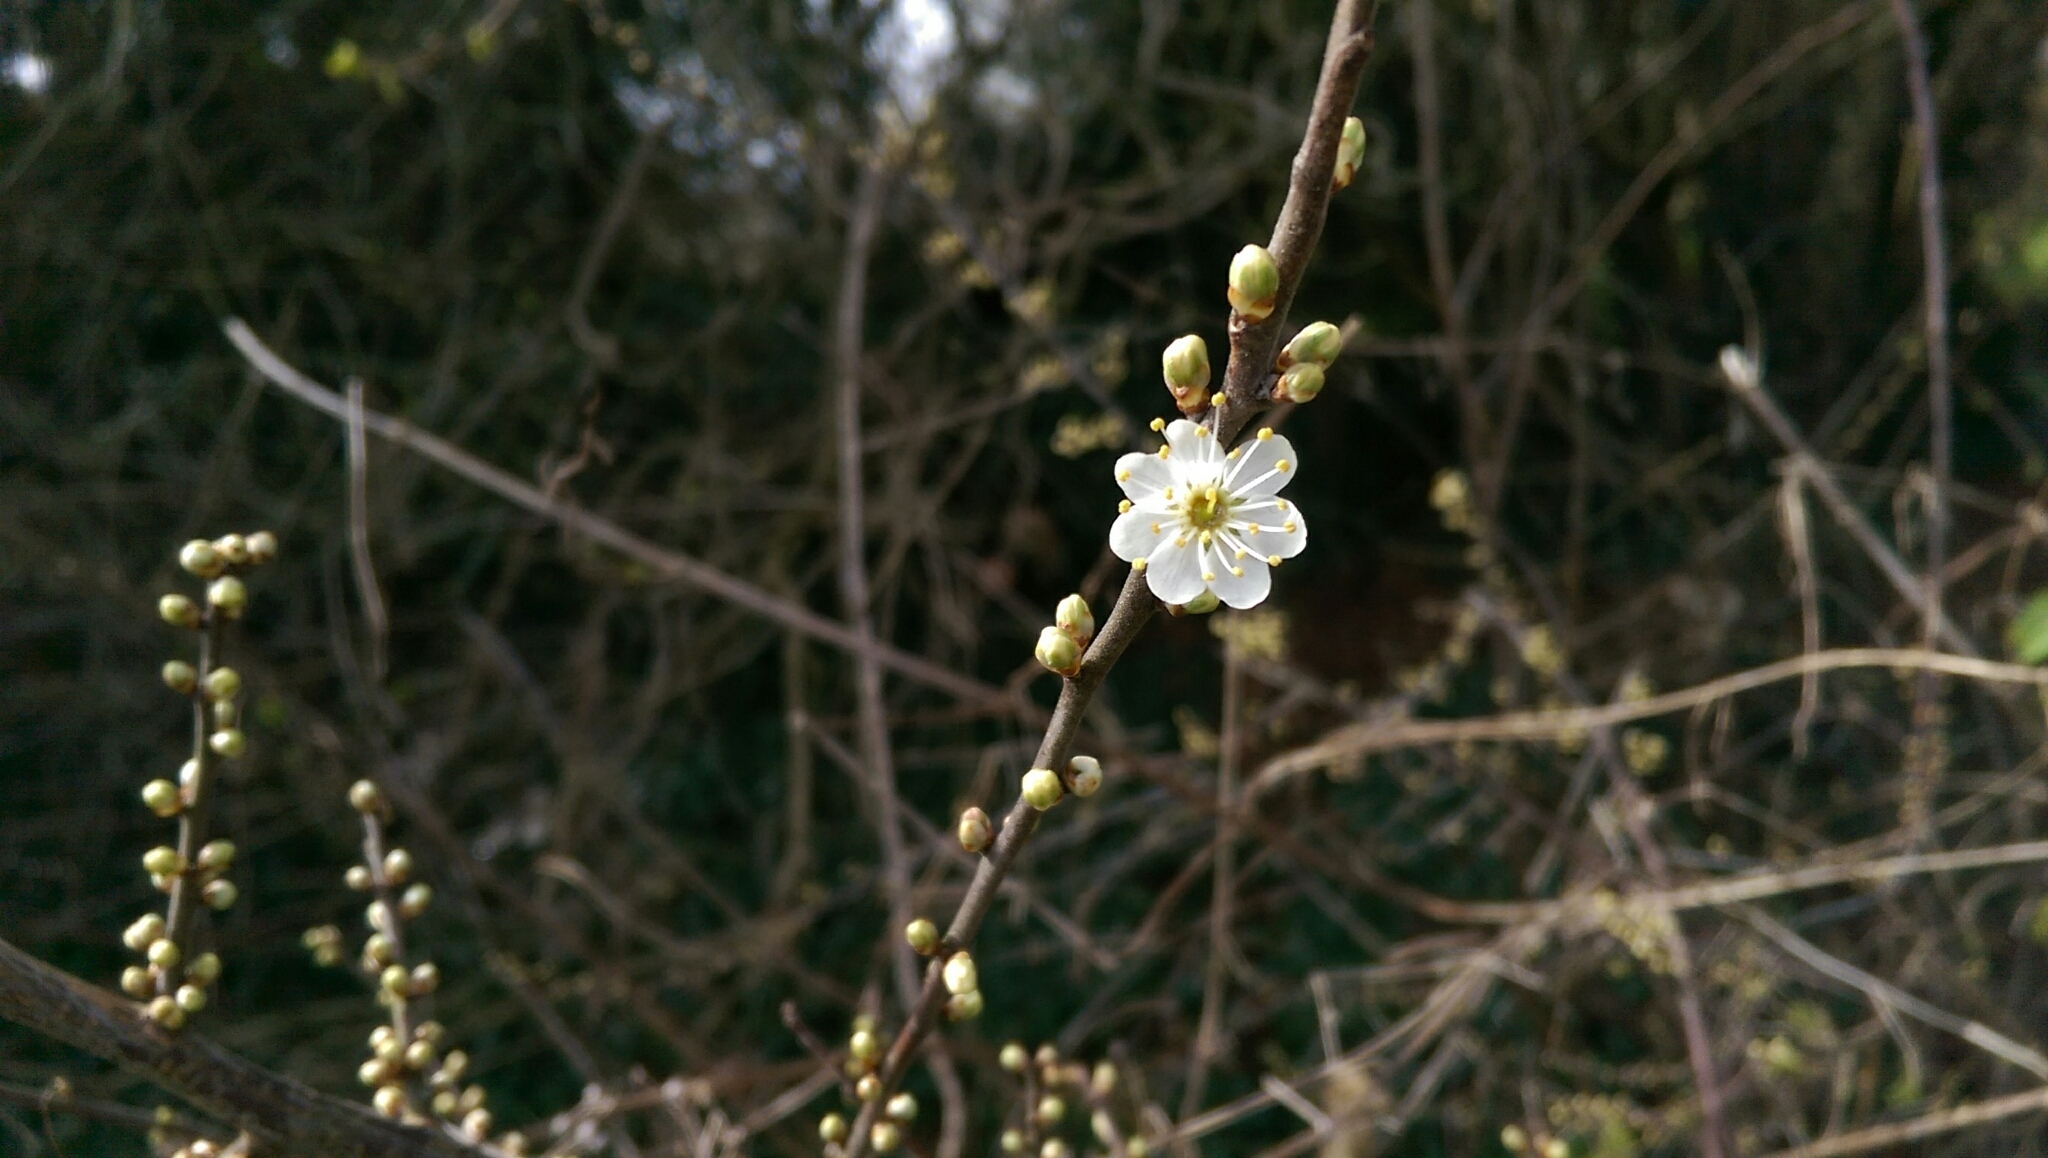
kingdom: Plantae
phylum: Tracheophyta
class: Magnoliopsida
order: Rosales
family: Rosaceae
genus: Prunus
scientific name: Prunus spinosa
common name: Blackthorn
